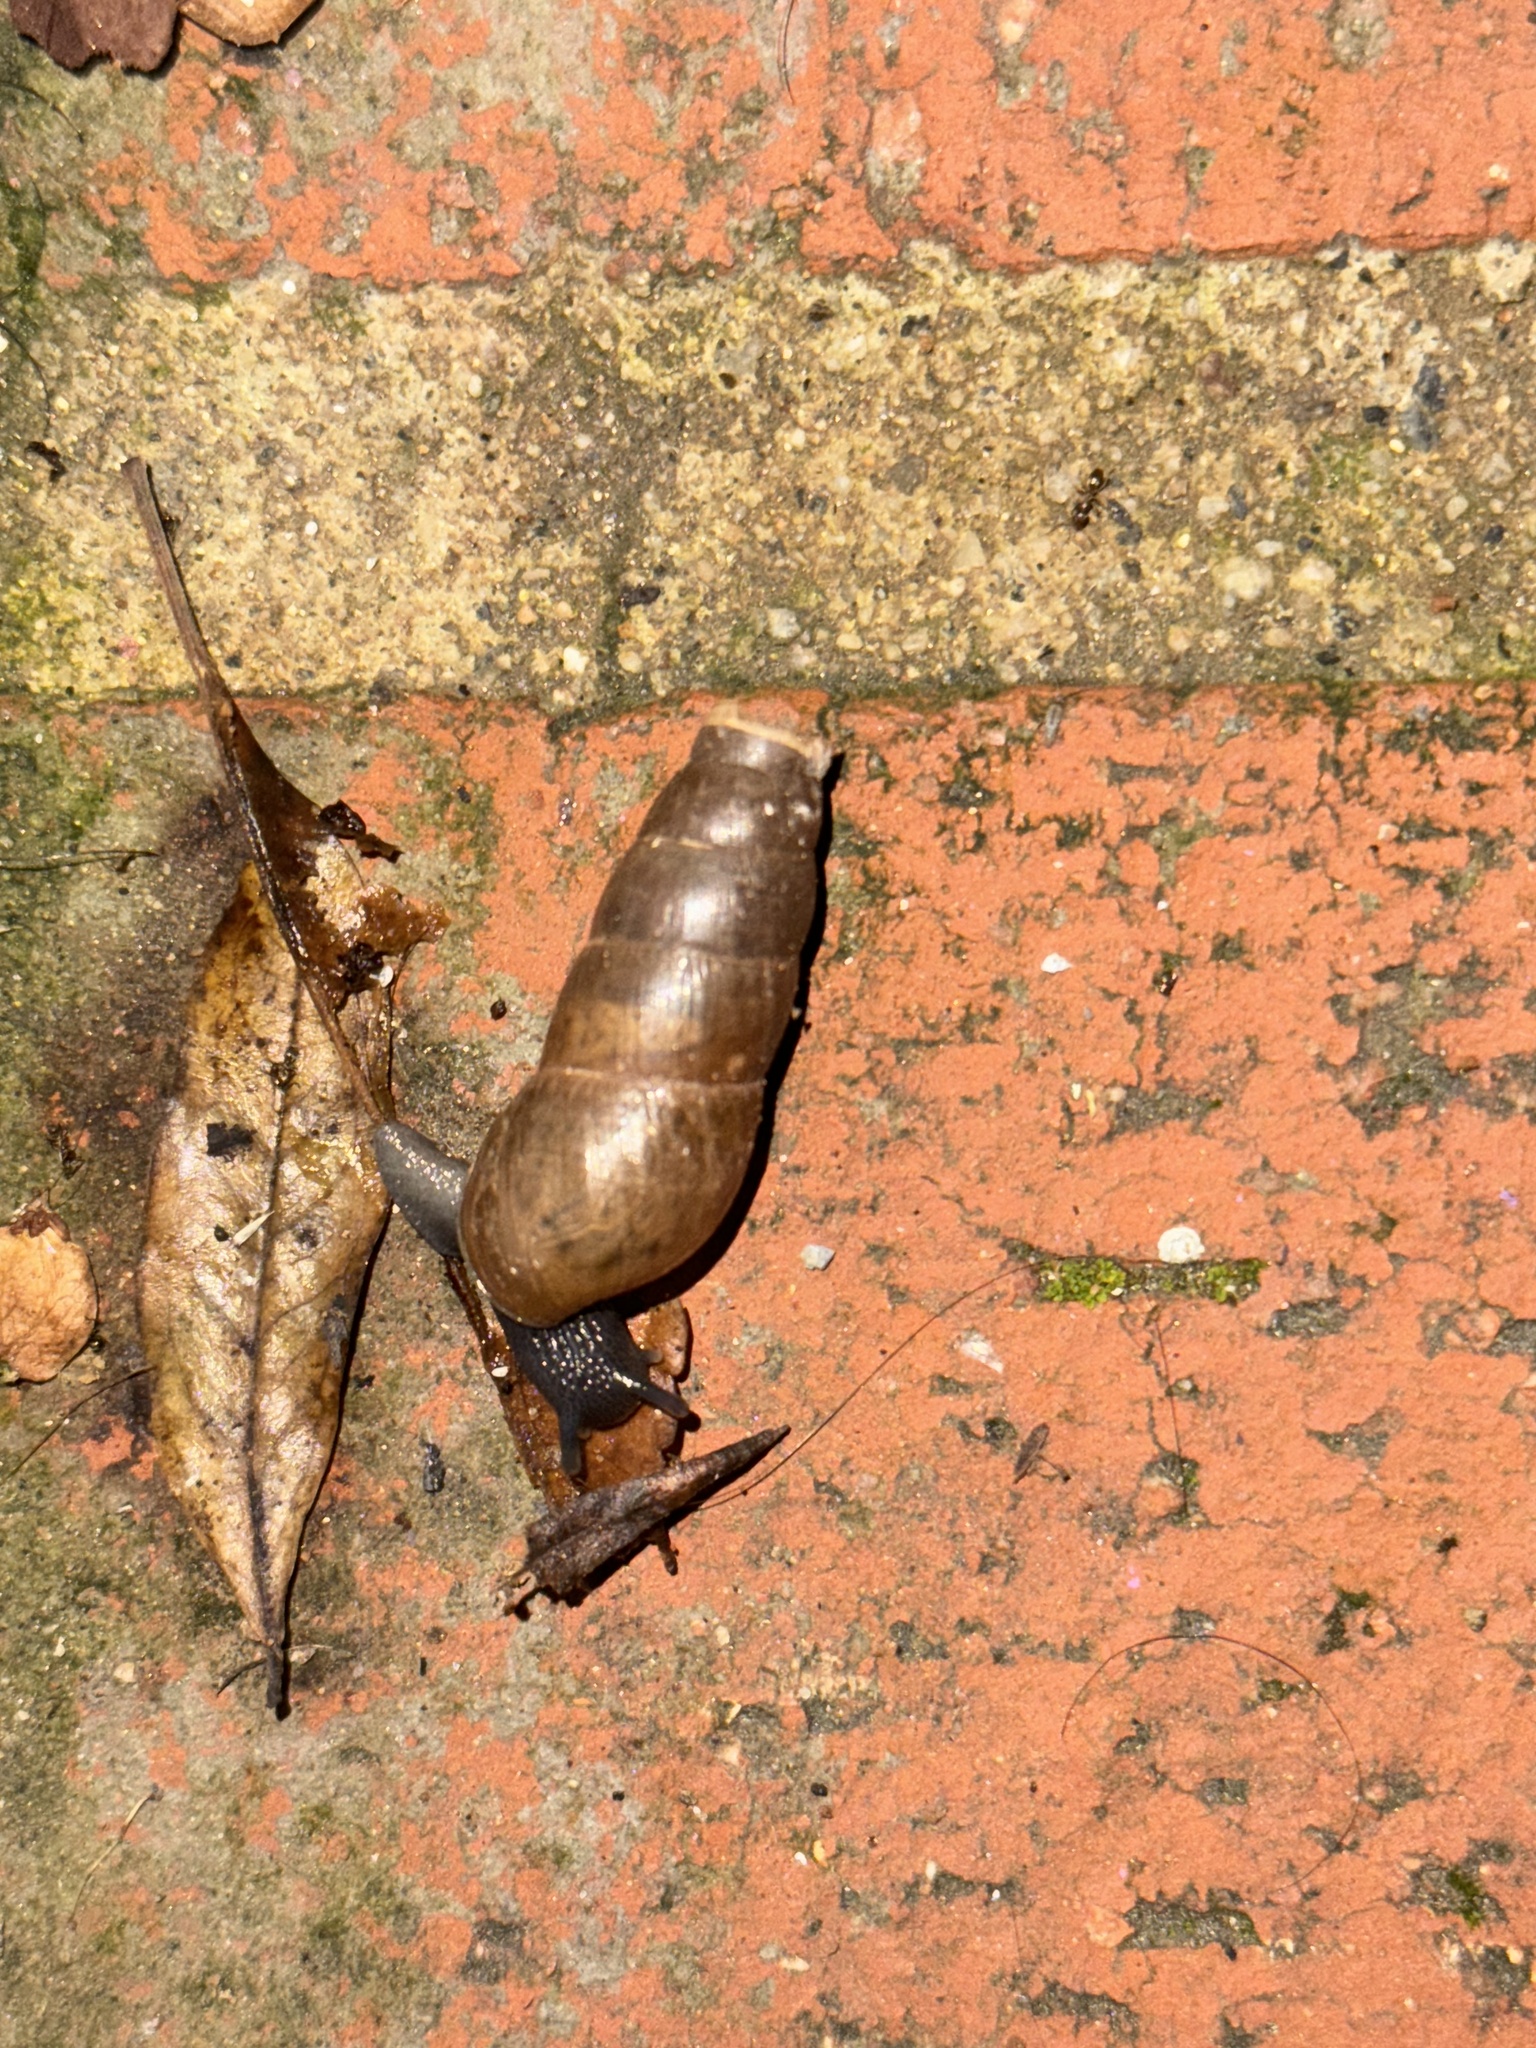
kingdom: Animalia
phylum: Mollusca
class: Gastropoda
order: Stylommatophora
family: Achatinidae
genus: Rumina
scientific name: Rumina decollata
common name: Decollate snail
